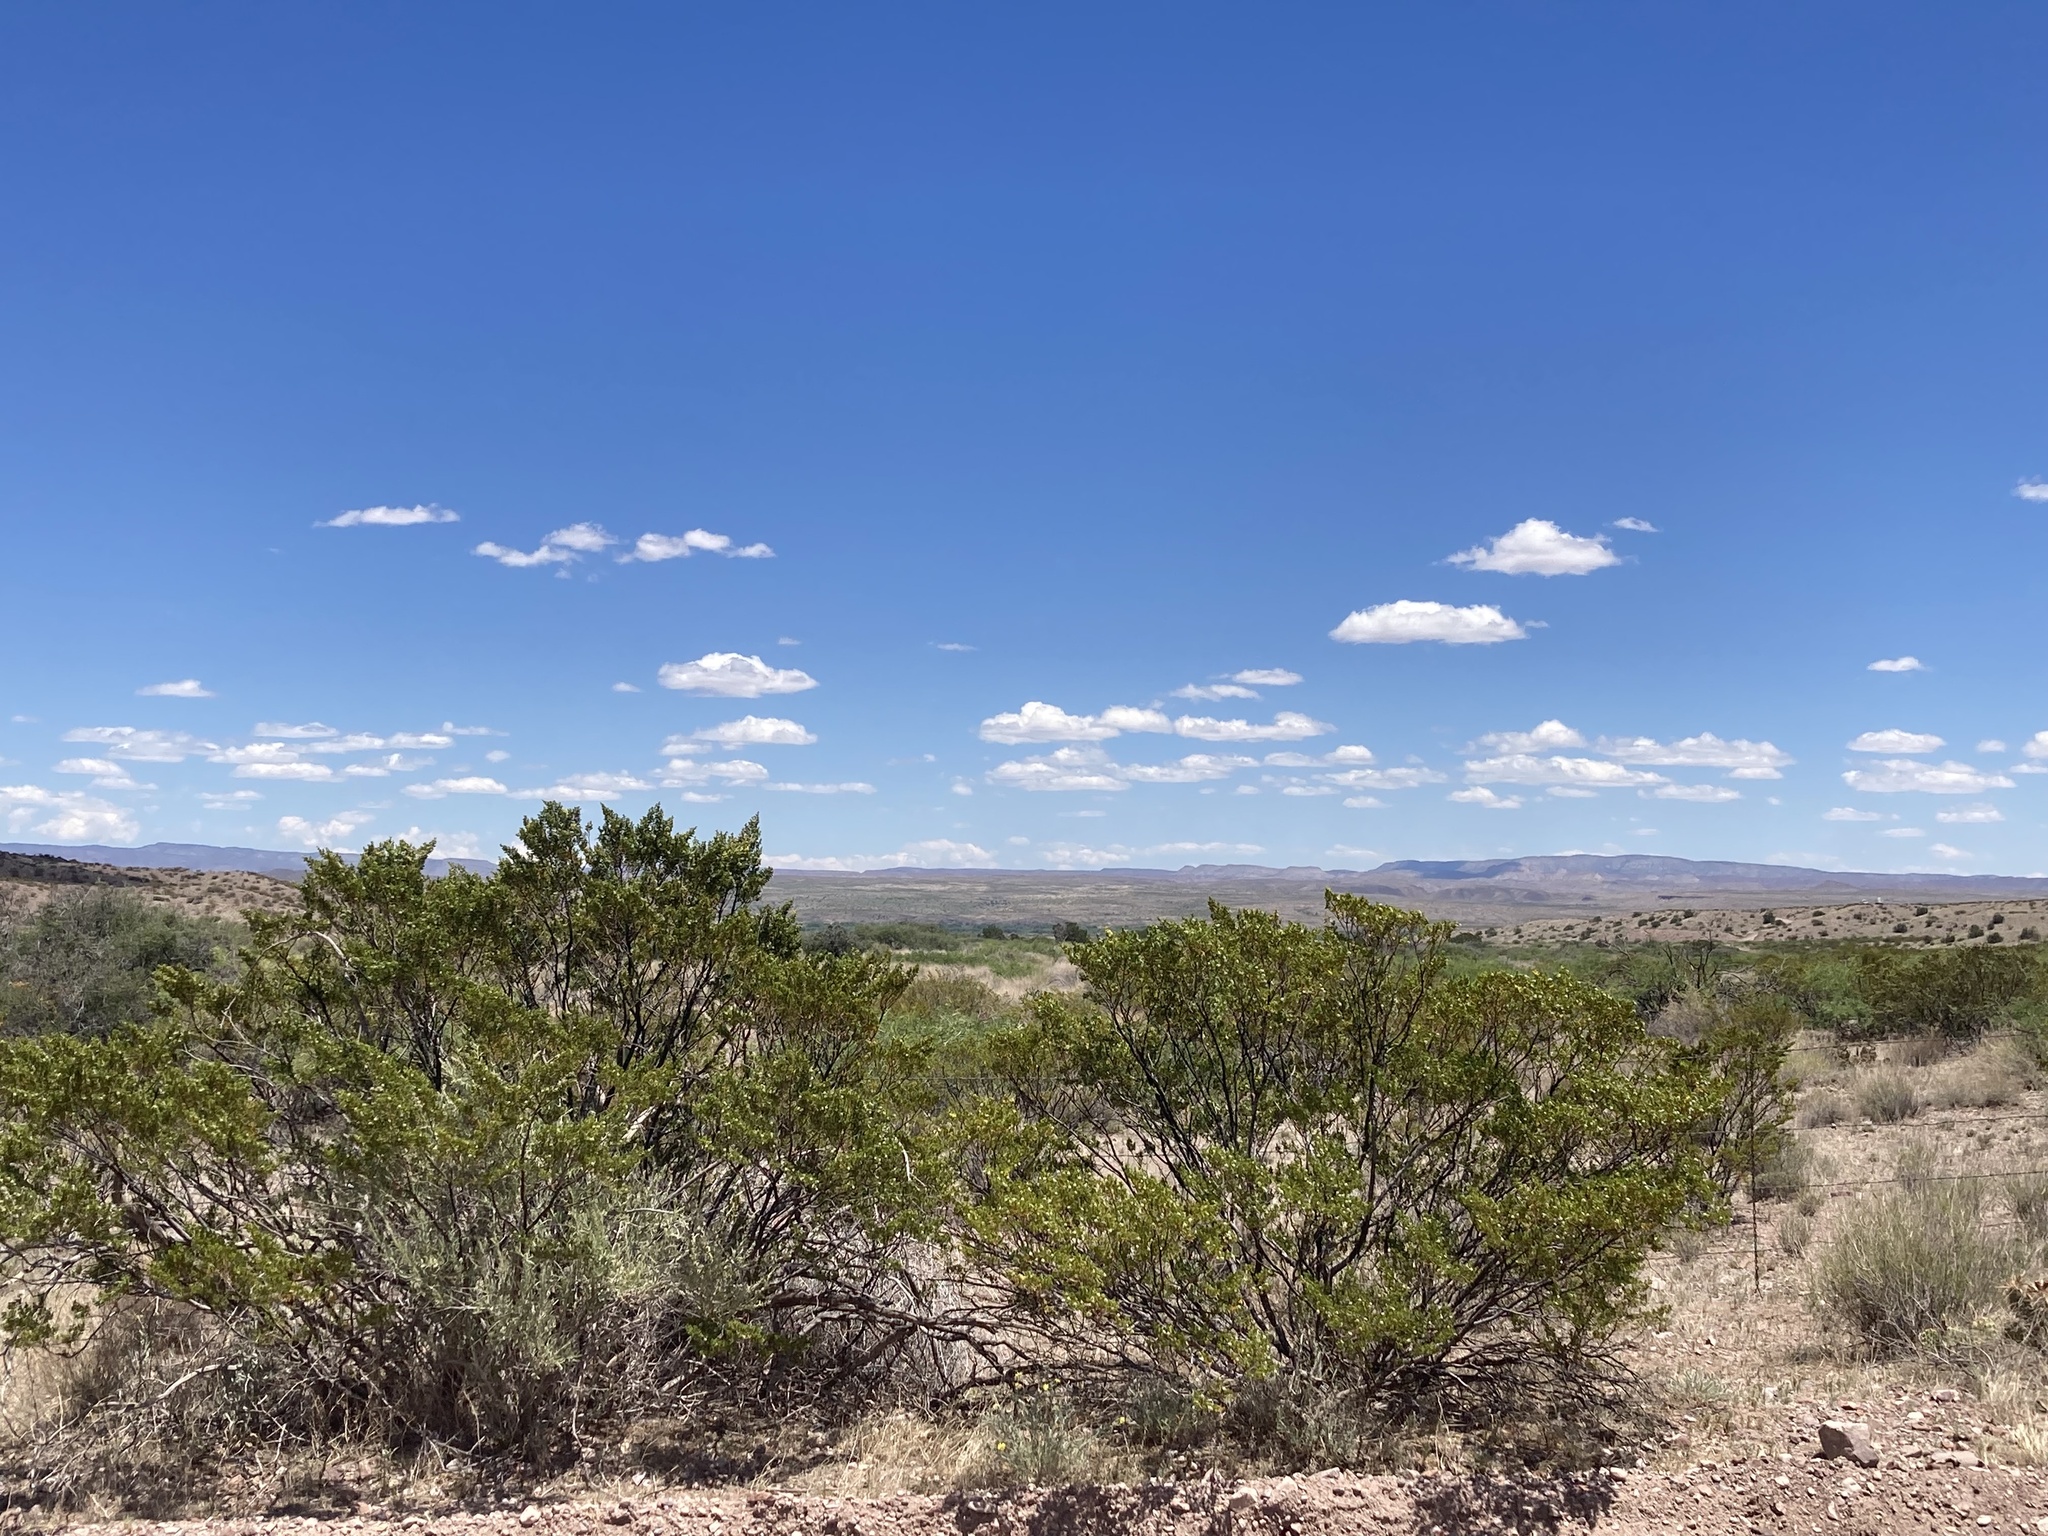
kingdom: Plantae
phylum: Tracheophyta
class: Magnoliopsida
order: Zygophyllales
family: Zygophyllaceae
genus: Larrea
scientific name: Larrea tridentata
